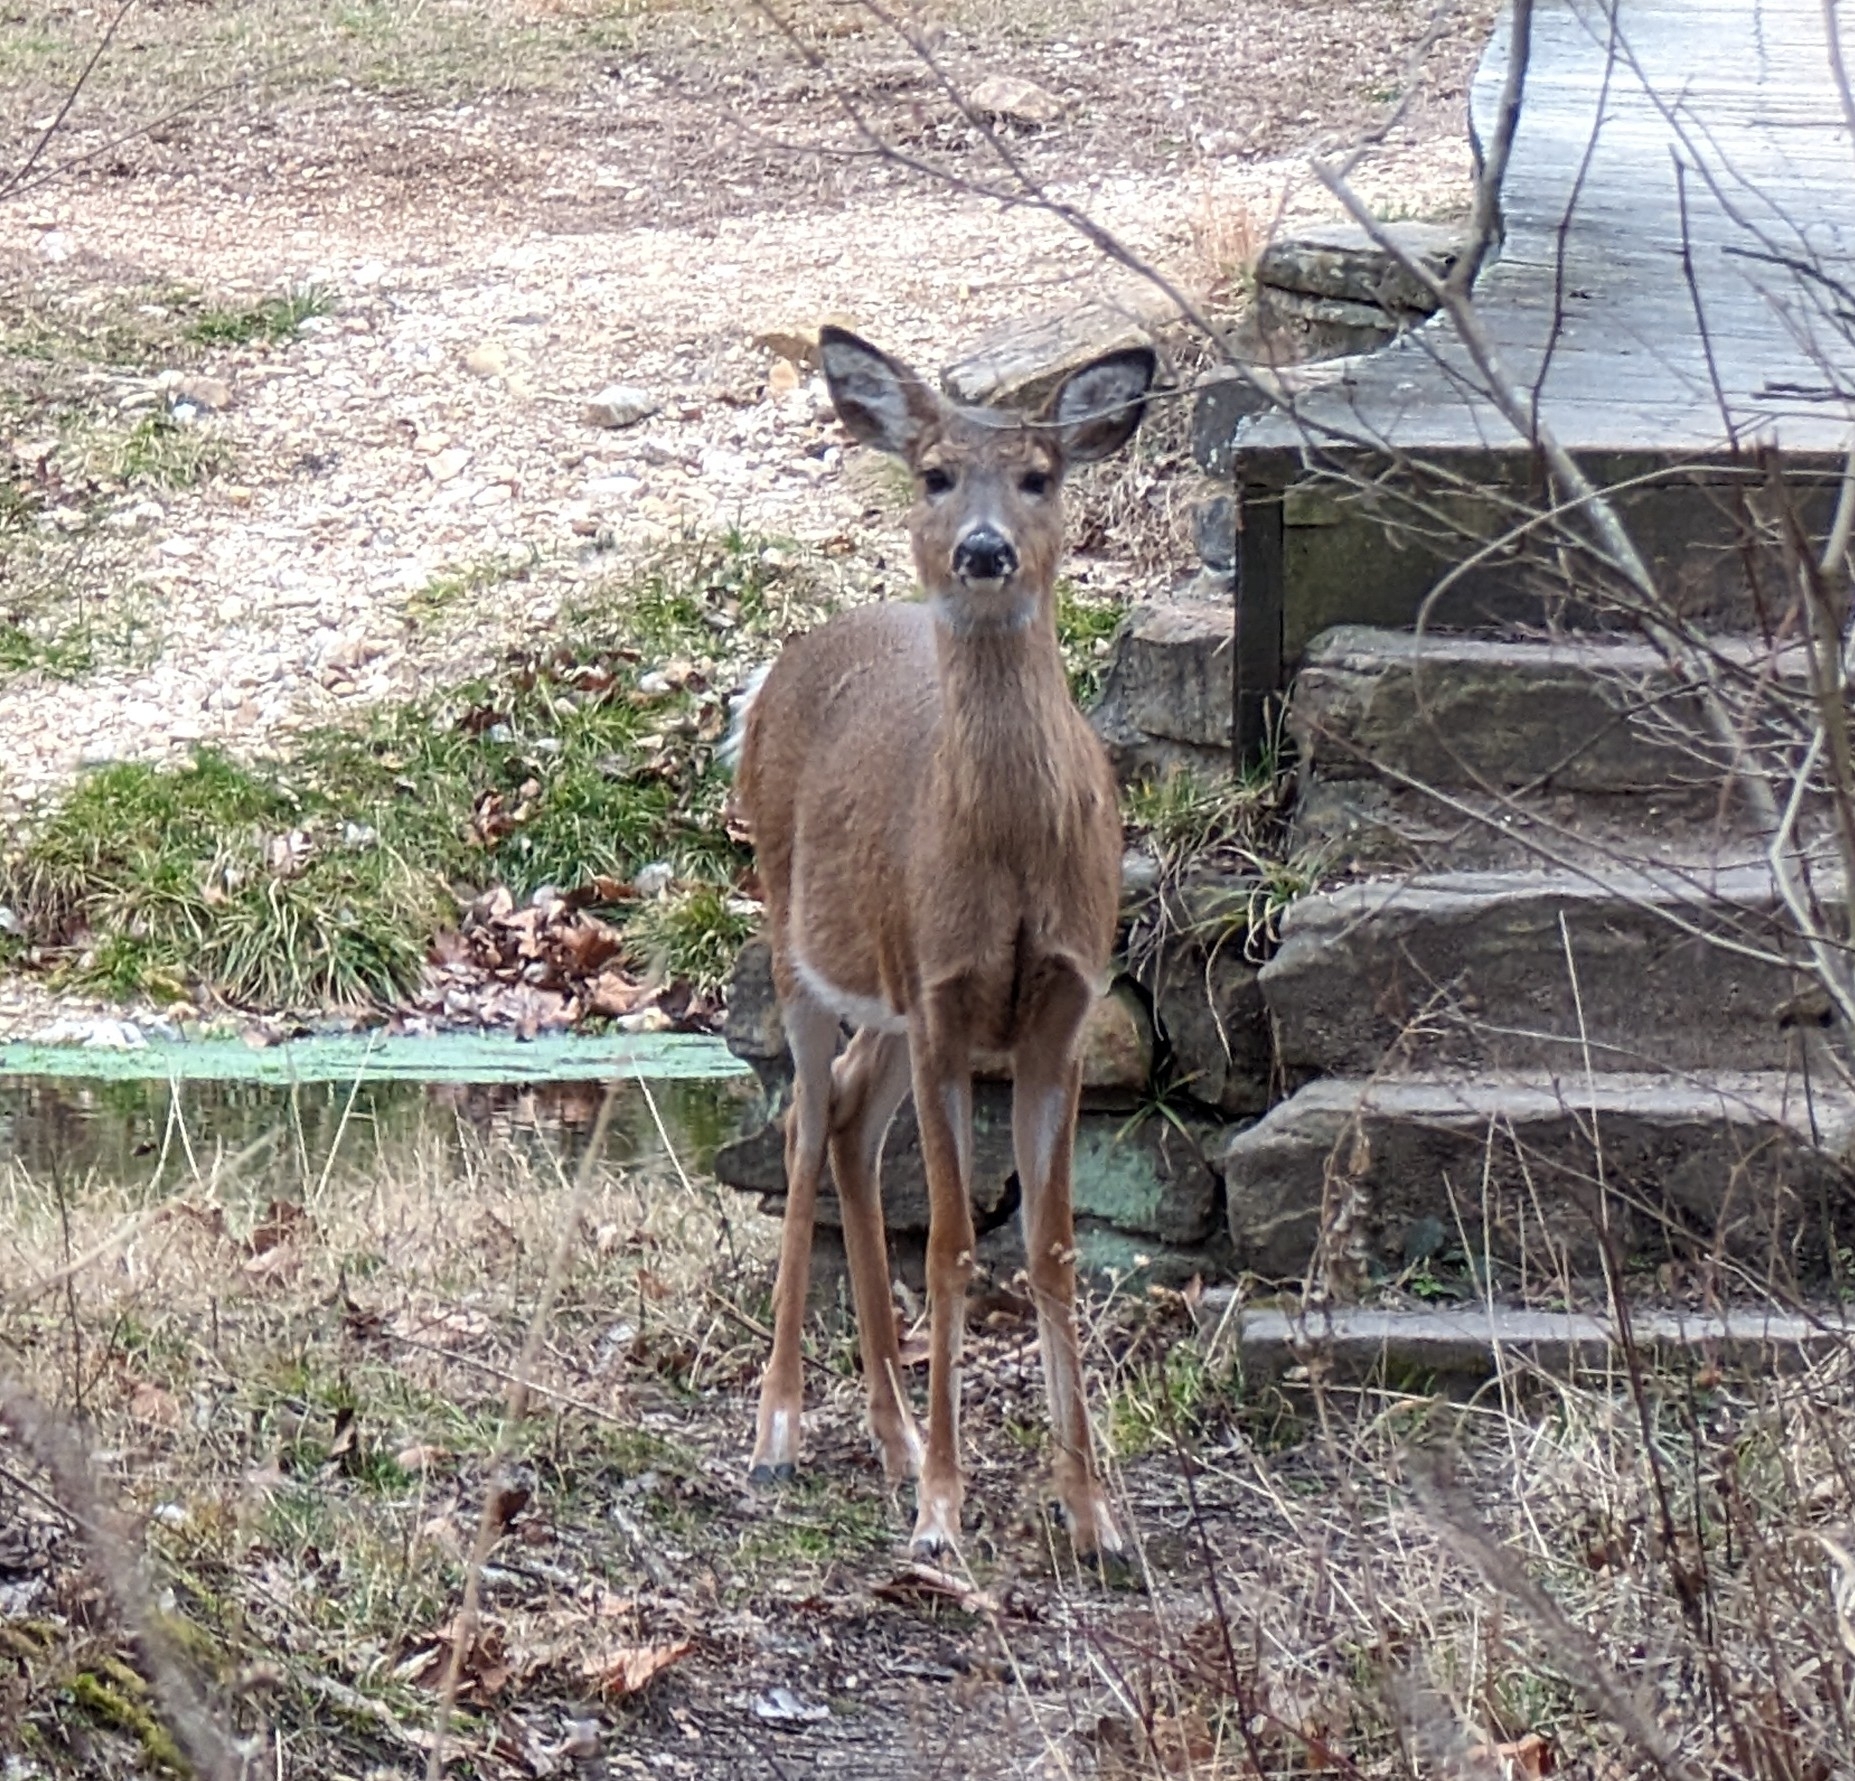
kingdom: Animalia
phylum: Chordata
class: Mammalia
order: Artiodactyla
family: Cervidae
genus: Odocoileus
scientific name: Odocoileus virginianus
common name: White-tailed deer
